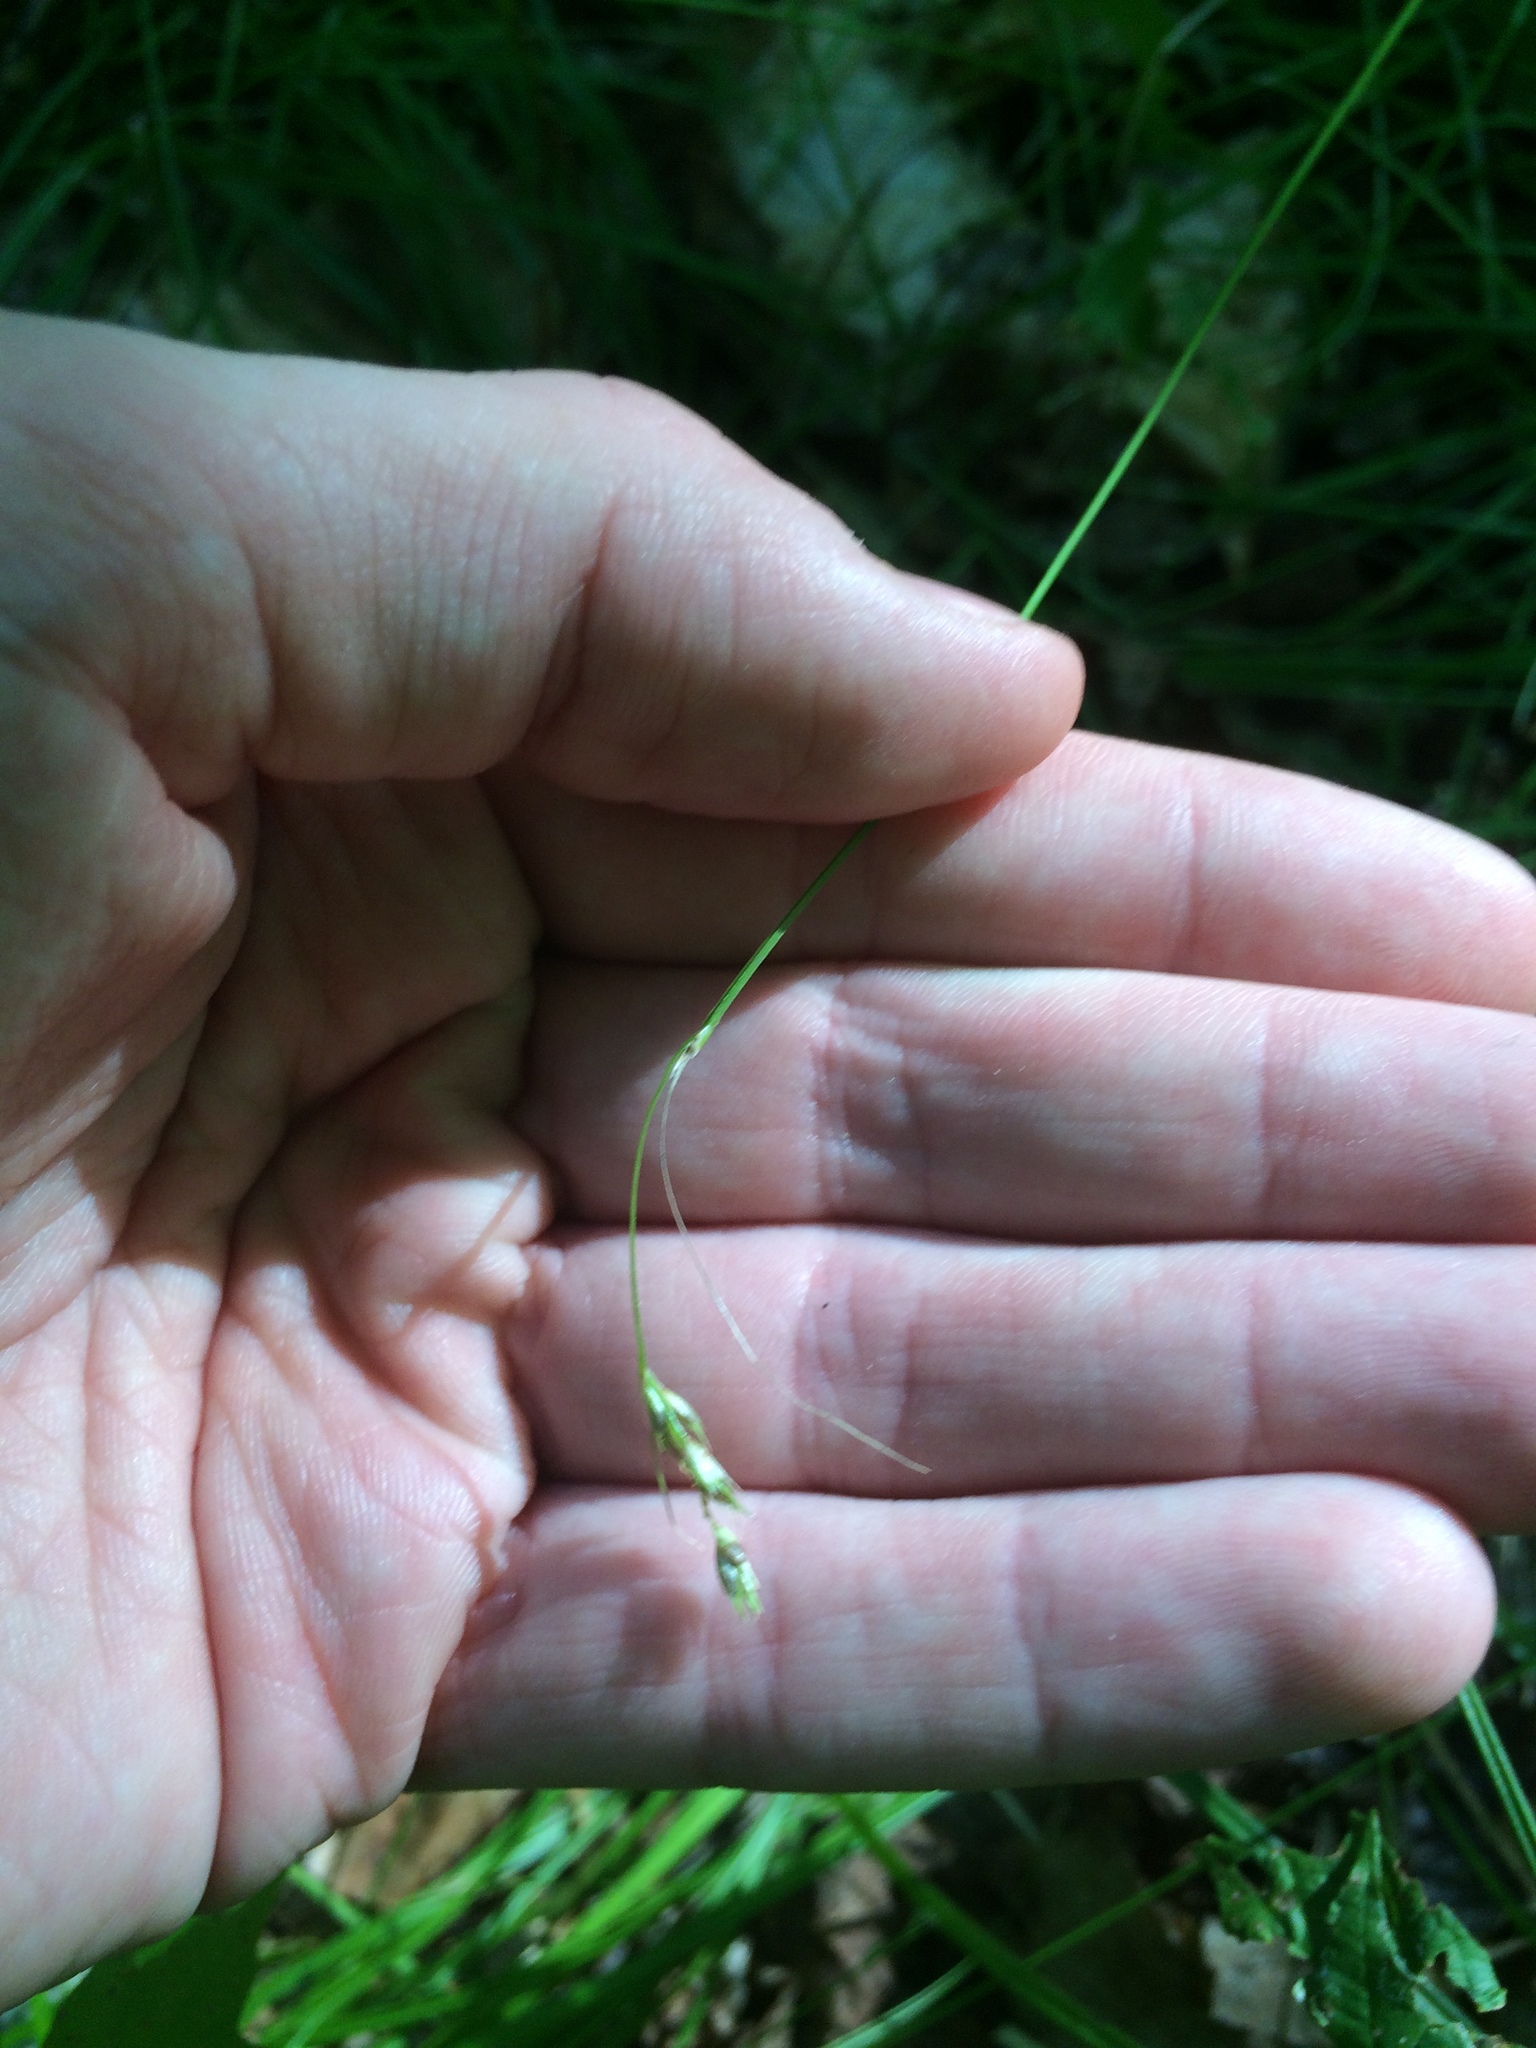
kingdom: Plantae
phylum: Tracheophyta
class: Liliopsida
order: Poales
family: Cyperaceae
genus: Carex
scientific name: Carex deweyana
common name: Dewey's sedge
